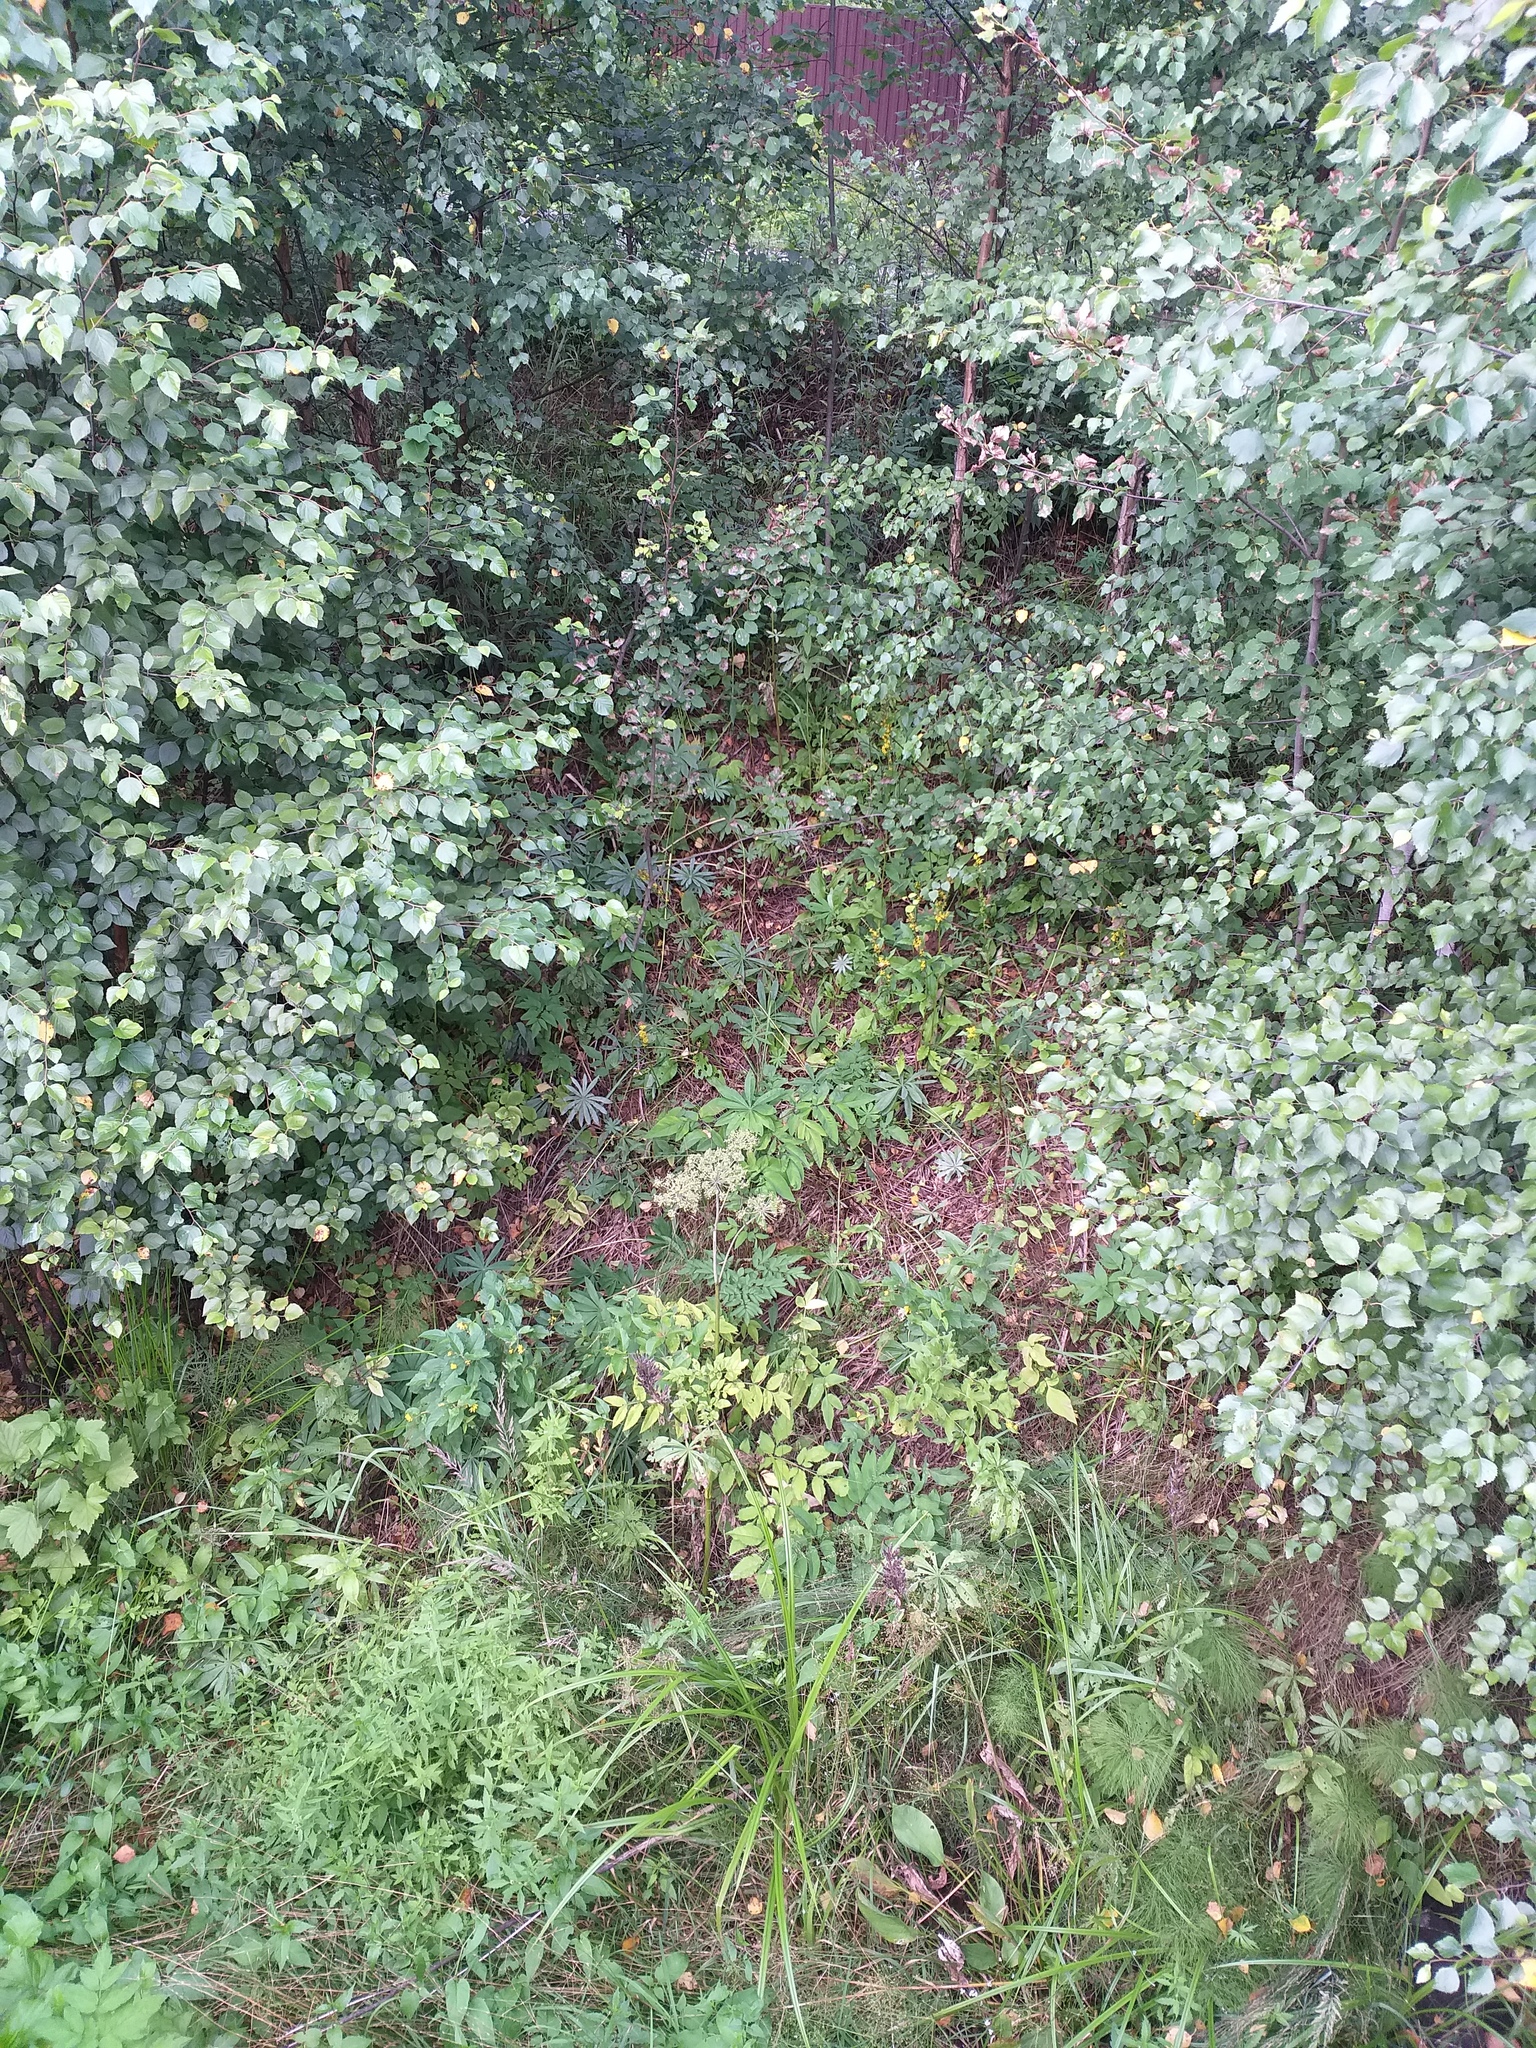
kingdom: Plantae
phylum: Tracheophyta
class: Magnoliopsida
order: Fabales
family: Fabaceae
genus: Lupinus
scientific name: Lupinus polyphyllus
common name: Garden lupin
